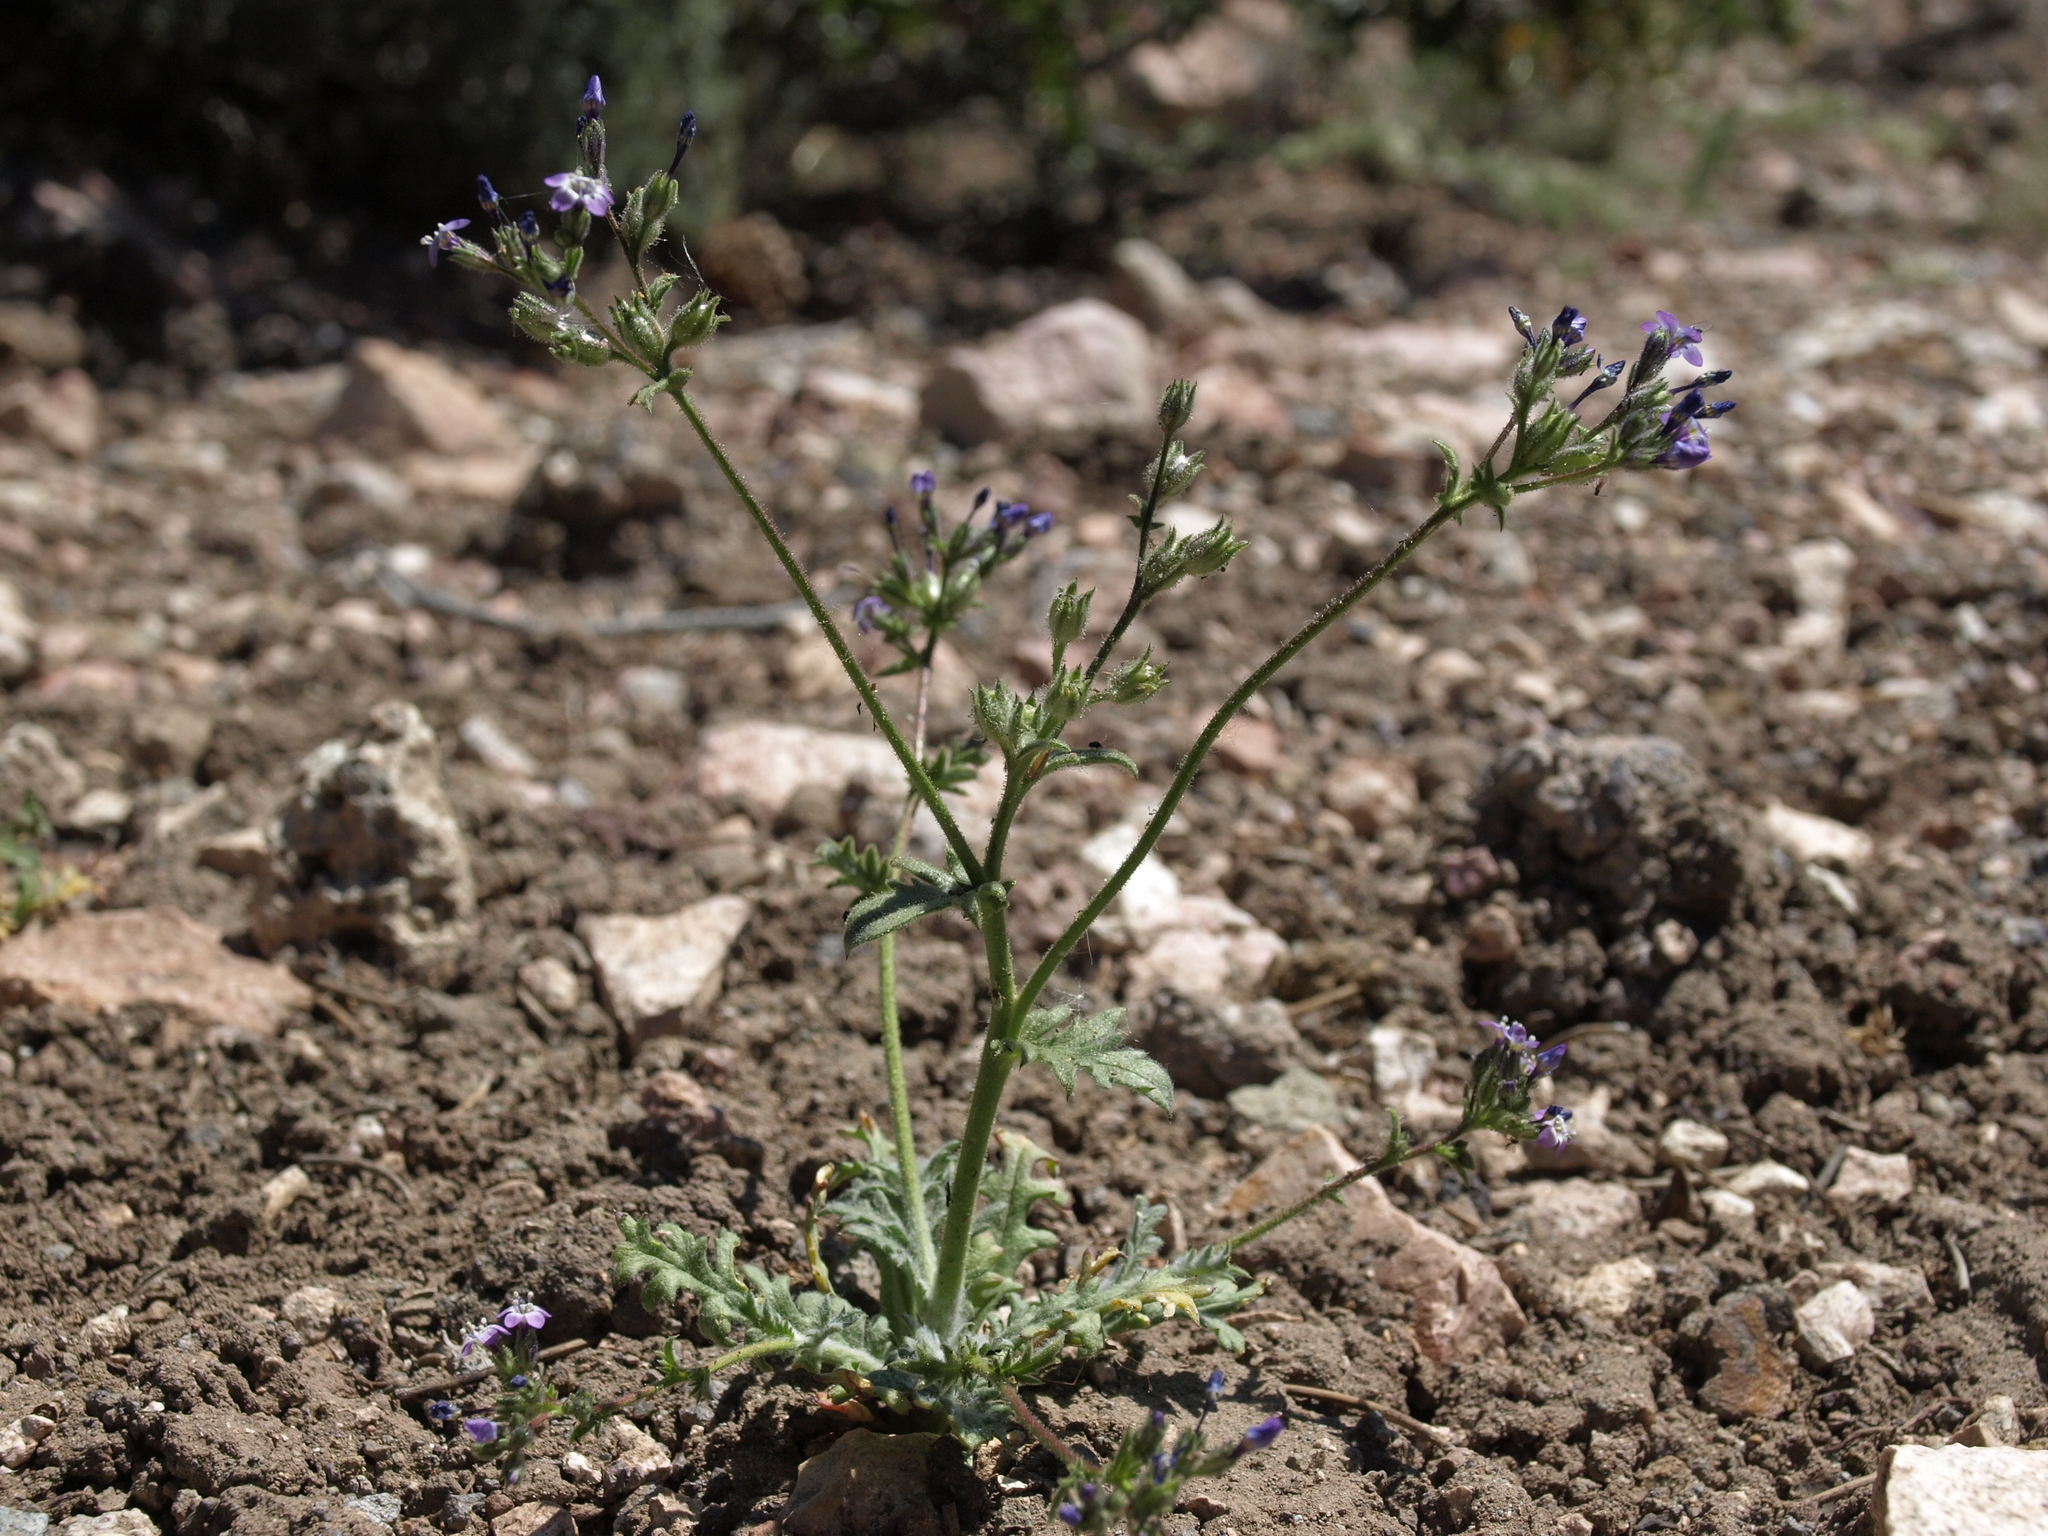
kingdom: Plantae
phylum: Tracheophyta
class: Magnoliopsida
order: Ericales
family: Polemoniaceae
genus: Gilia
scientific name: Gilia brecciarum
